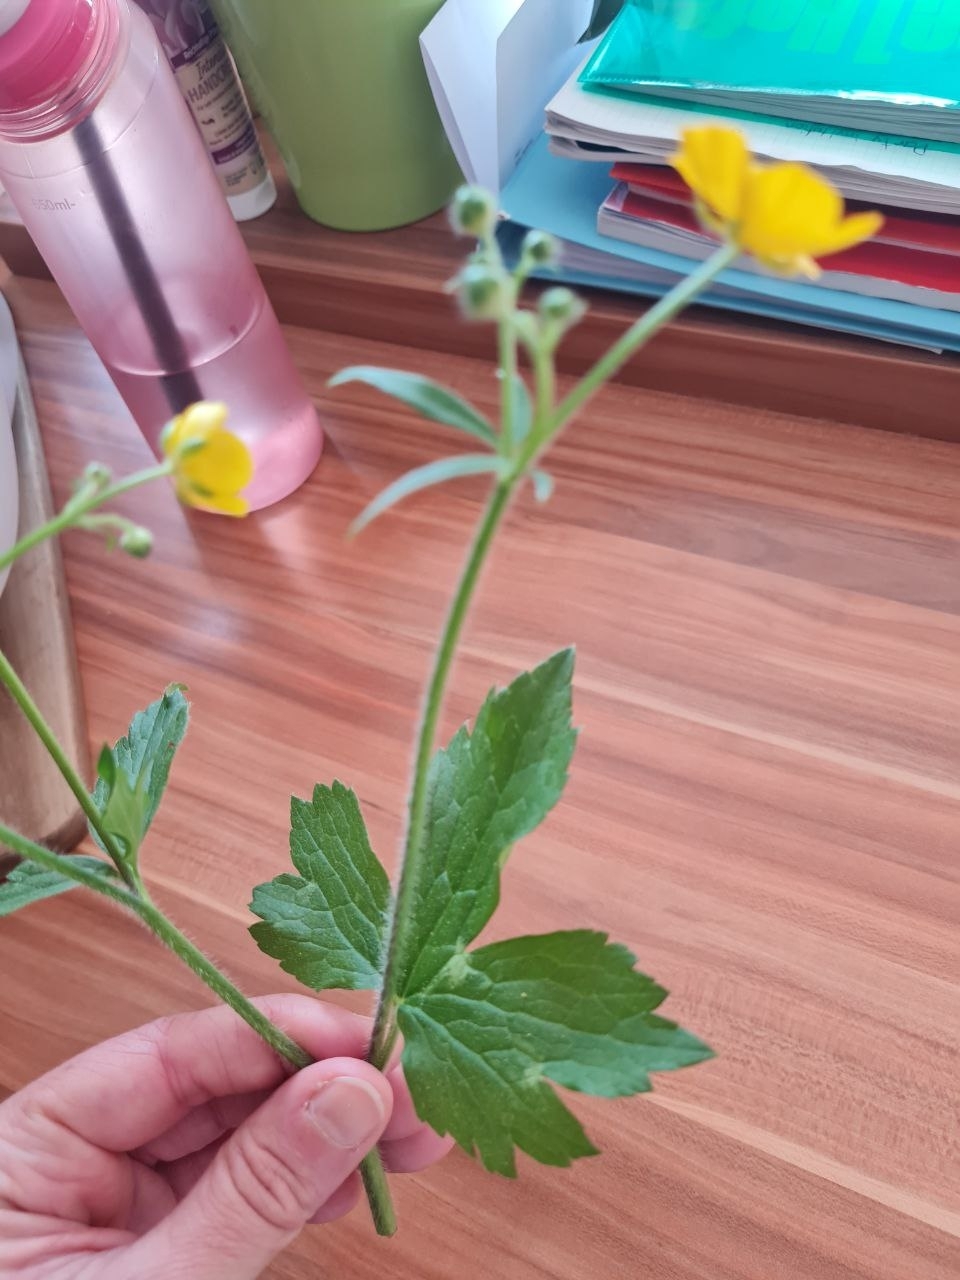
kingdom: Plantae
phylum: Tracheophyta
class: Magnoliopsida
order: Ranunculales
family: Ranunculaceae
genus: Ranunculus
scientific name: Ranunculus lanuginosus
